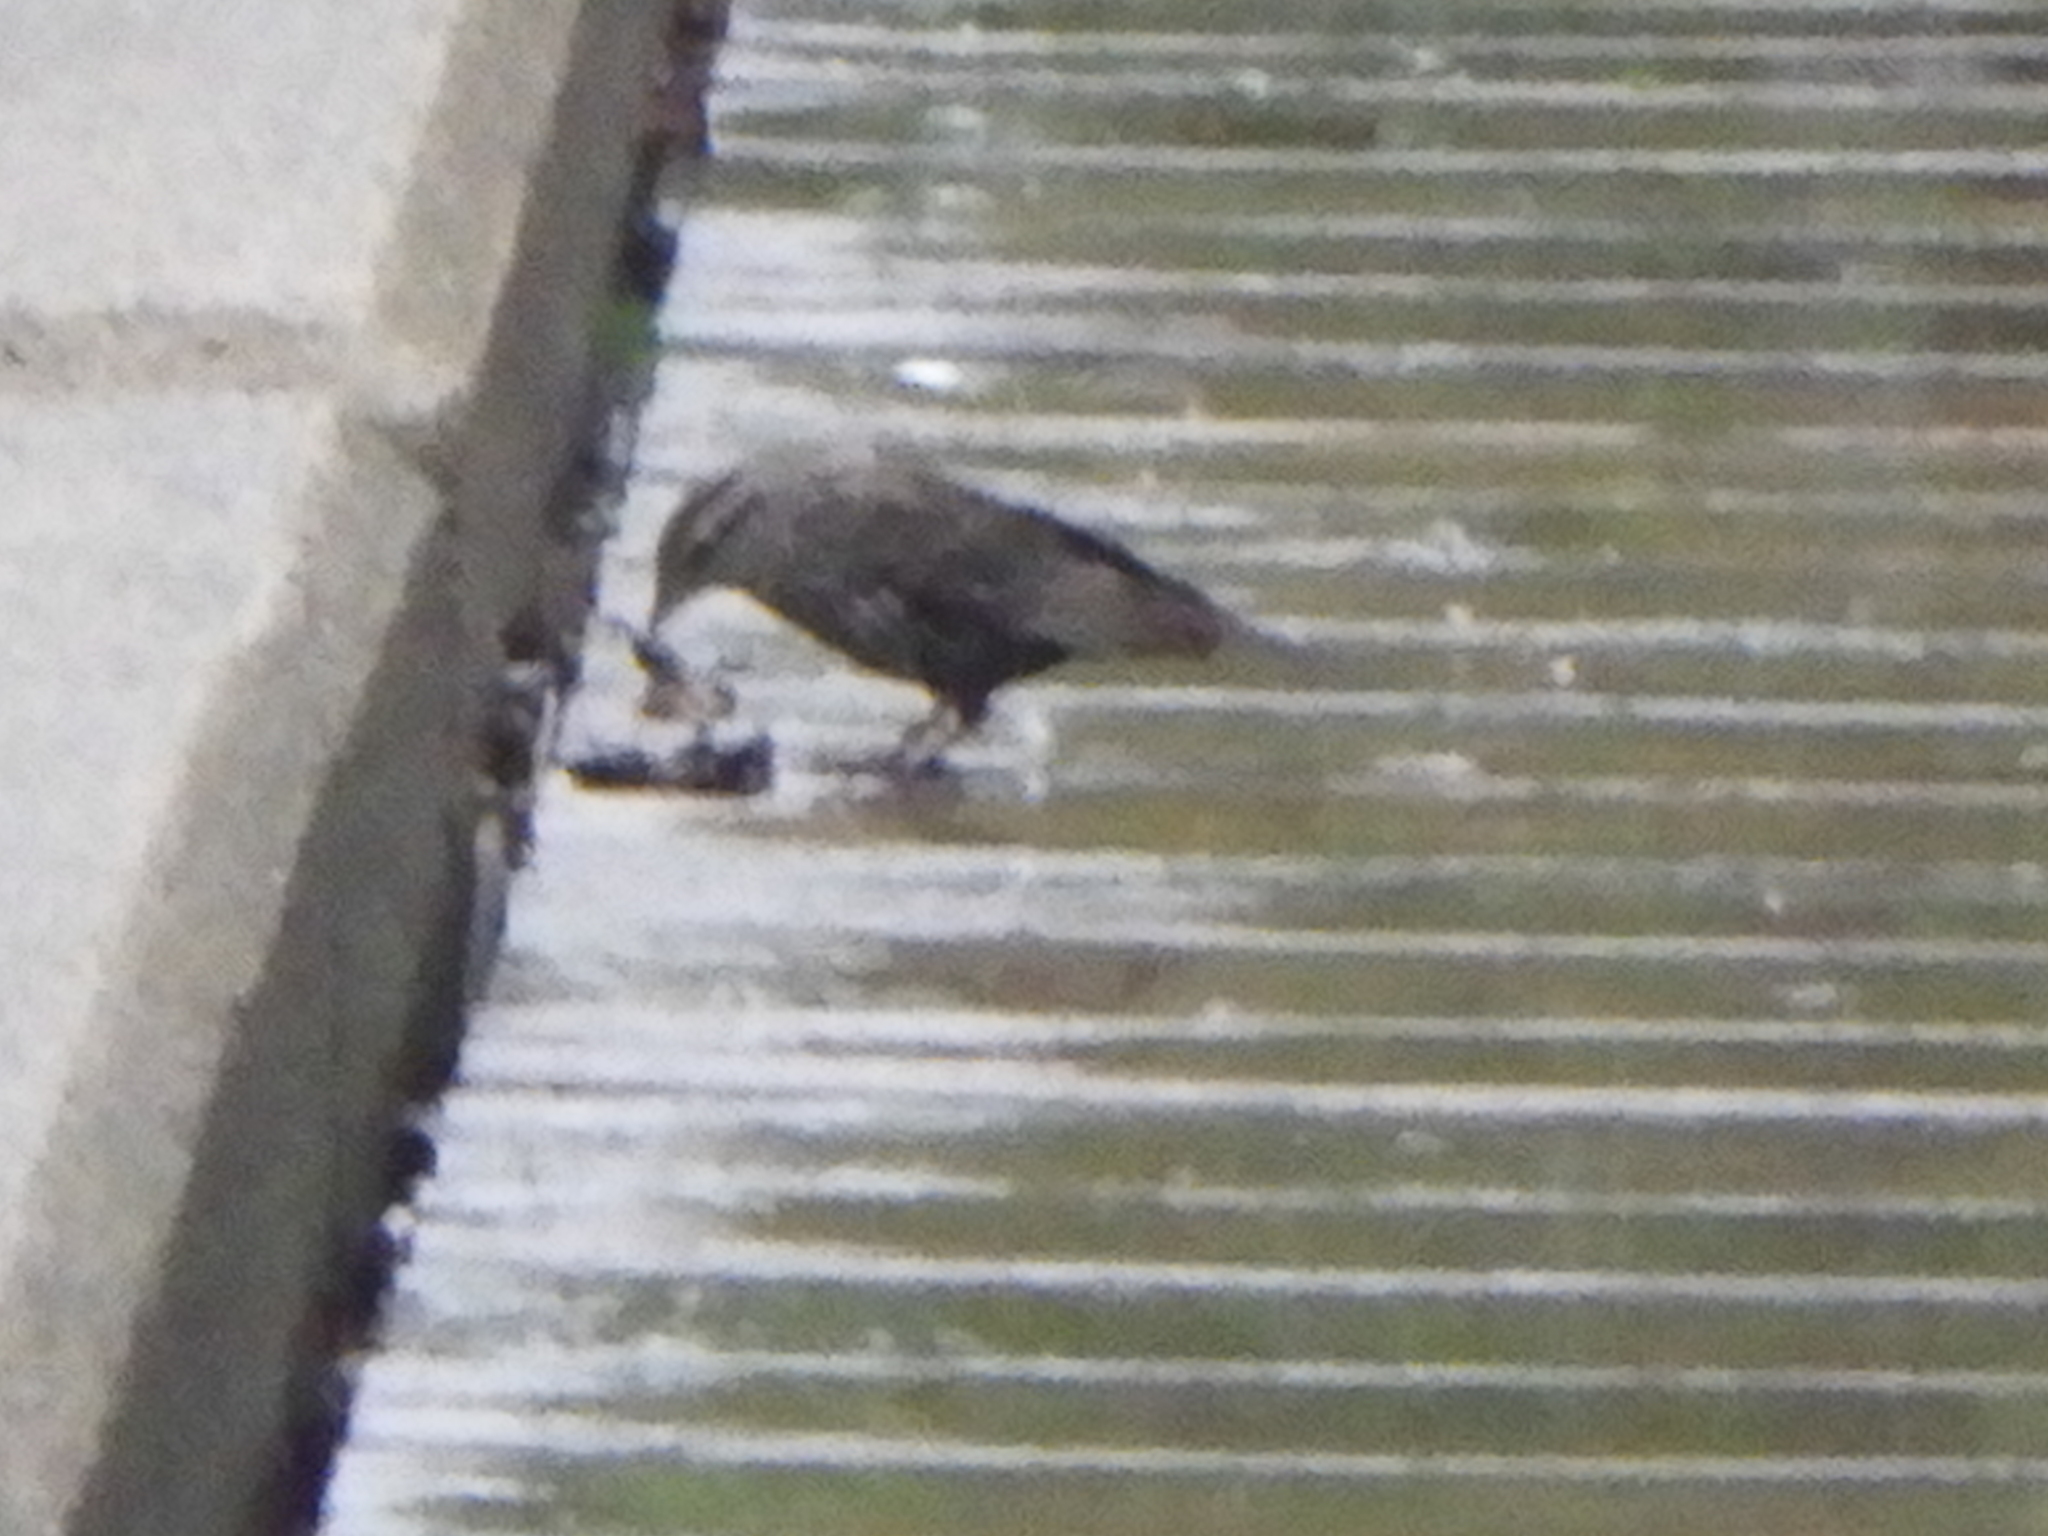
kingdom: Animalia
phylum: Chordata
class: Aves
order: Passeriformes
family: Icteridae
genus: Agelaius
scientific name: Agelaius phoeniceus
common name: Red-winged blackbird
